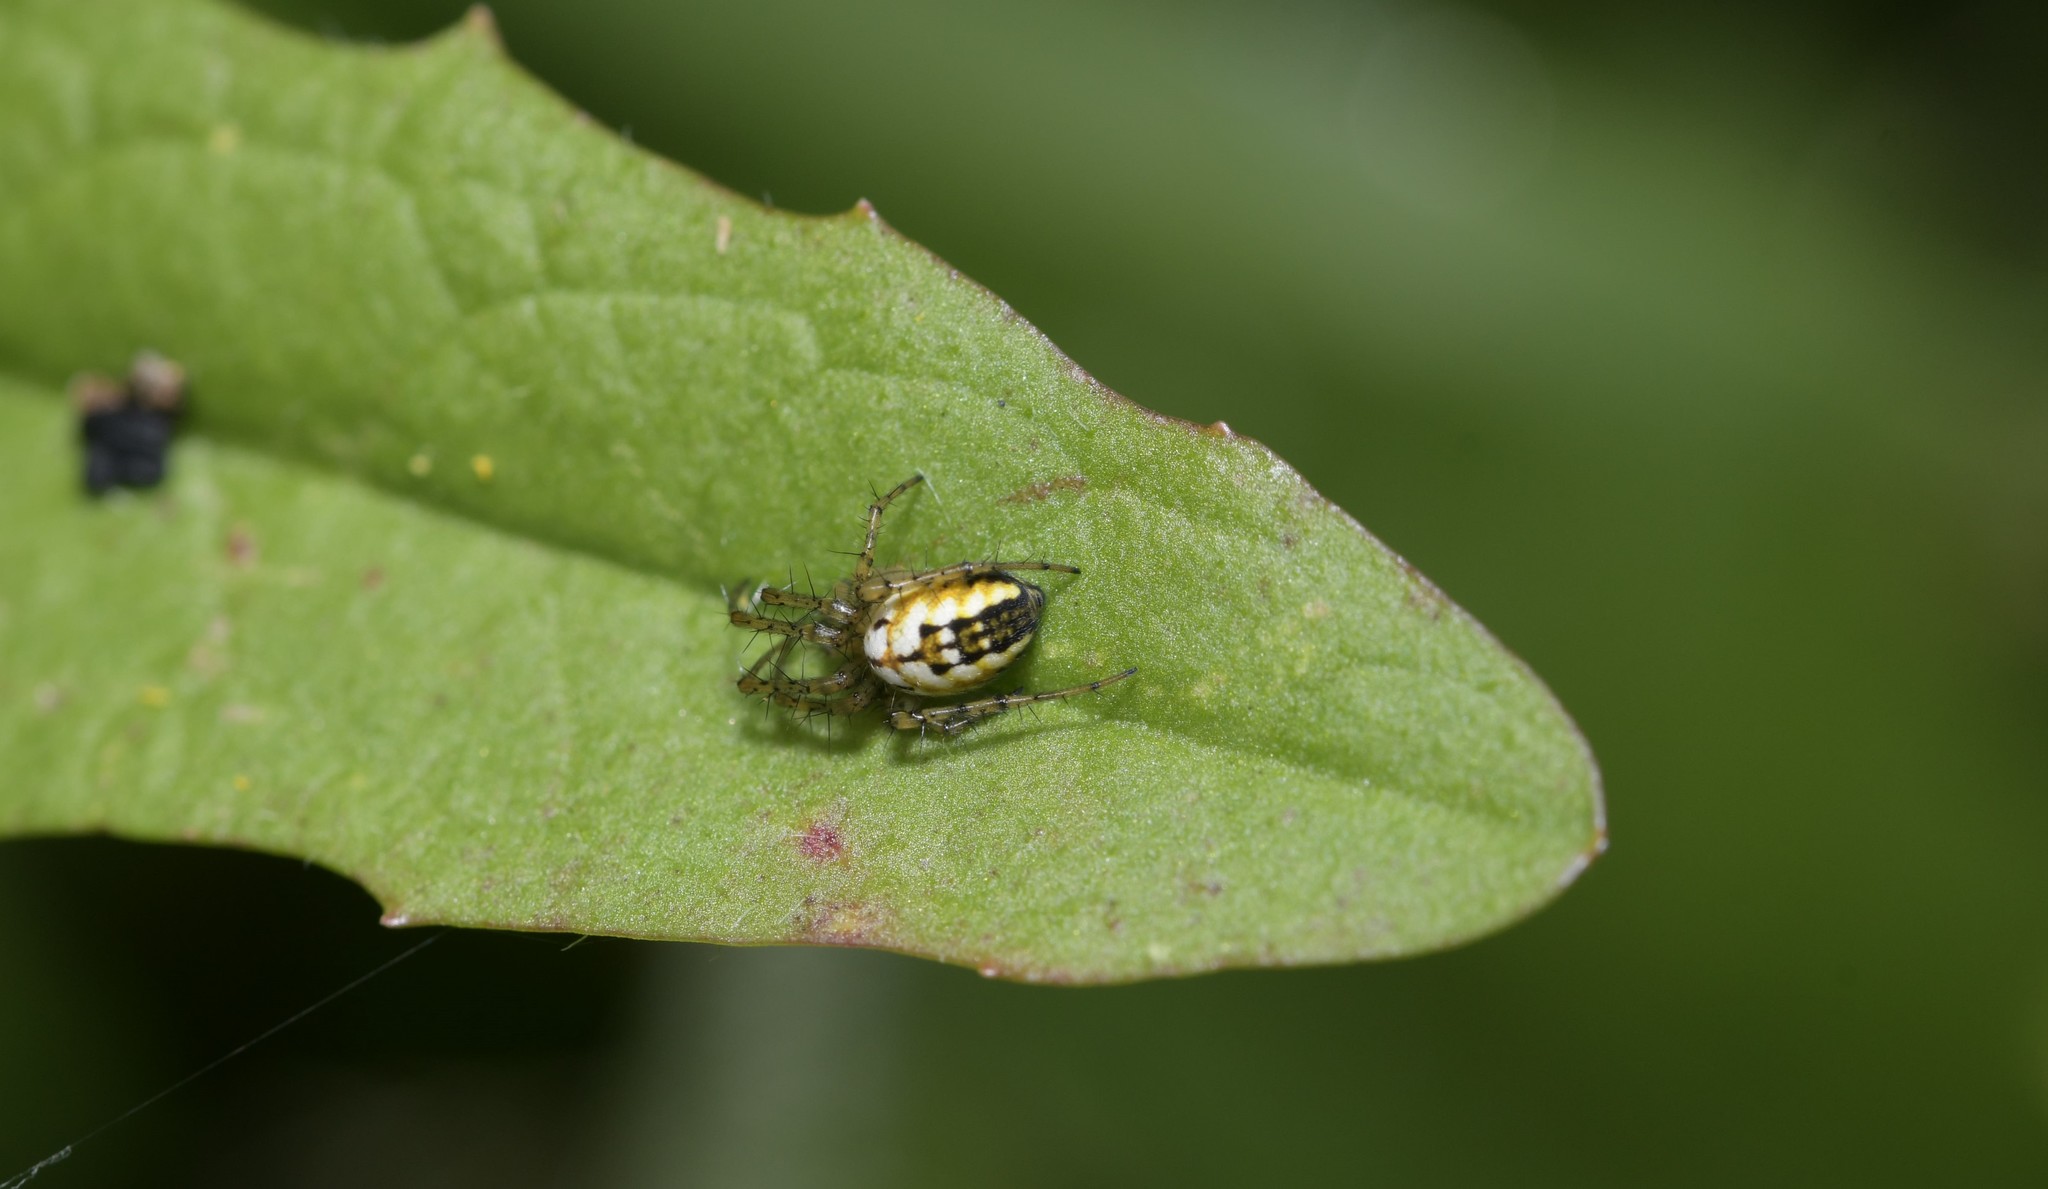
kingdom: Animalia
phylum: Arthropoda
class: Arachnida
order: Araneae
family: Araneidae
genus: Mangora
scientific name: Mangora acalypha
